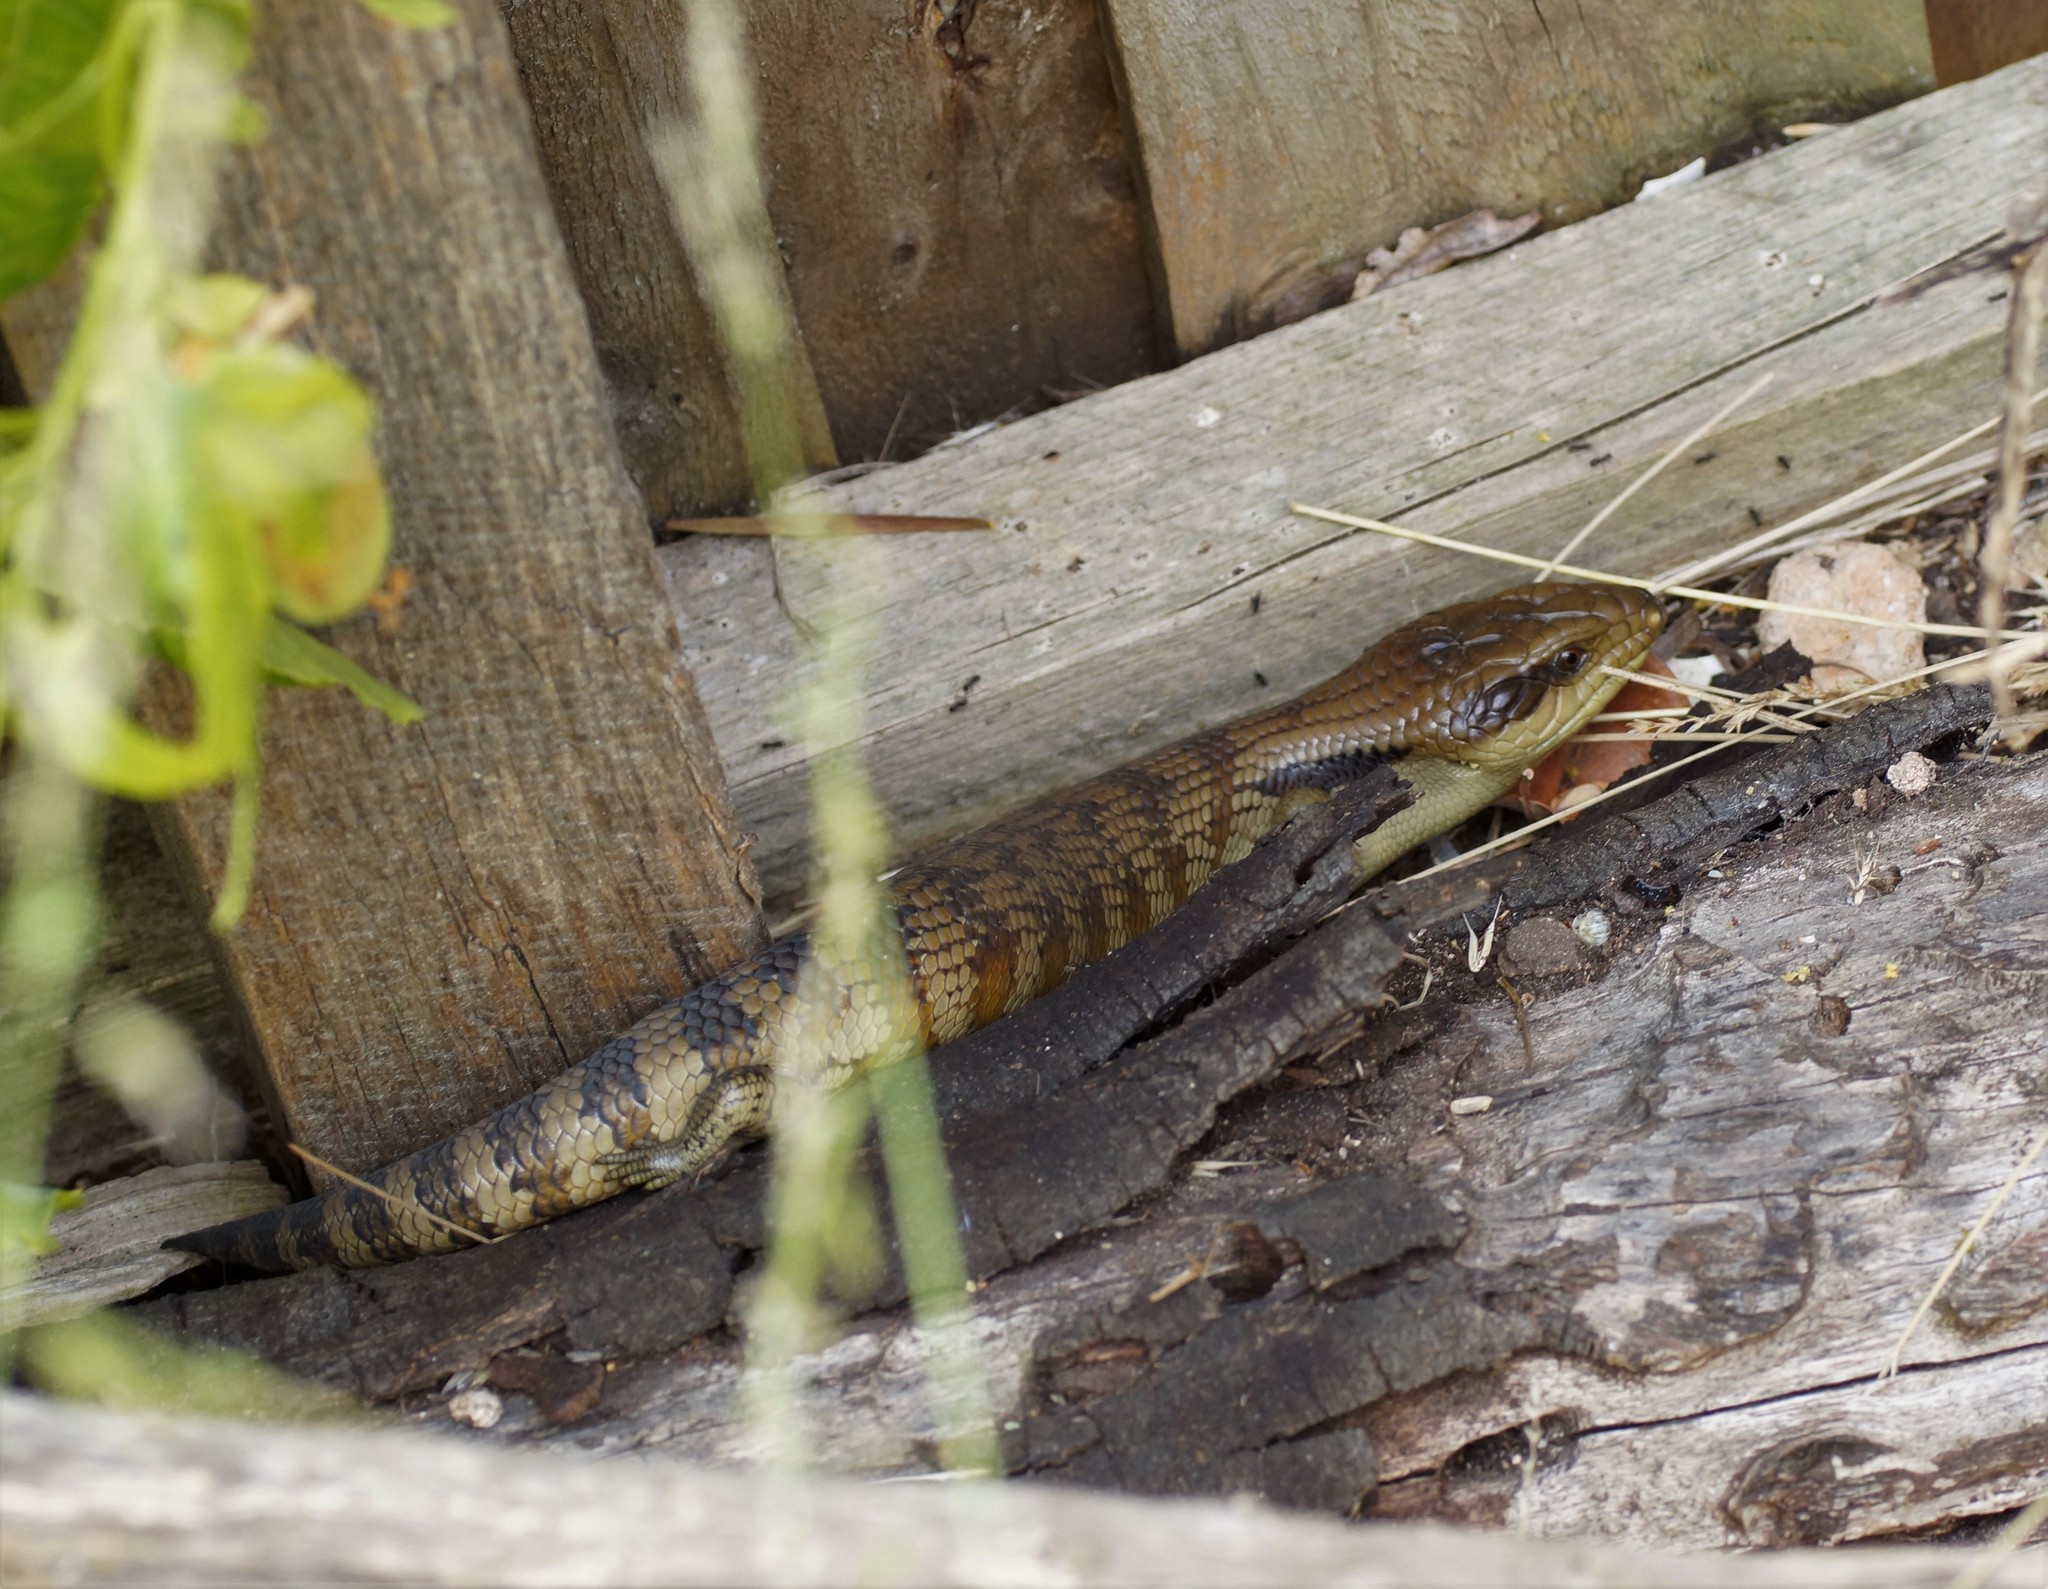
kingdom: Animalia
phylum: Chordata
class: Squamata
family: Scincidae
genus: Tiliqua
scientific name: Tiliqua scincoides
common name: Common bluetongue
